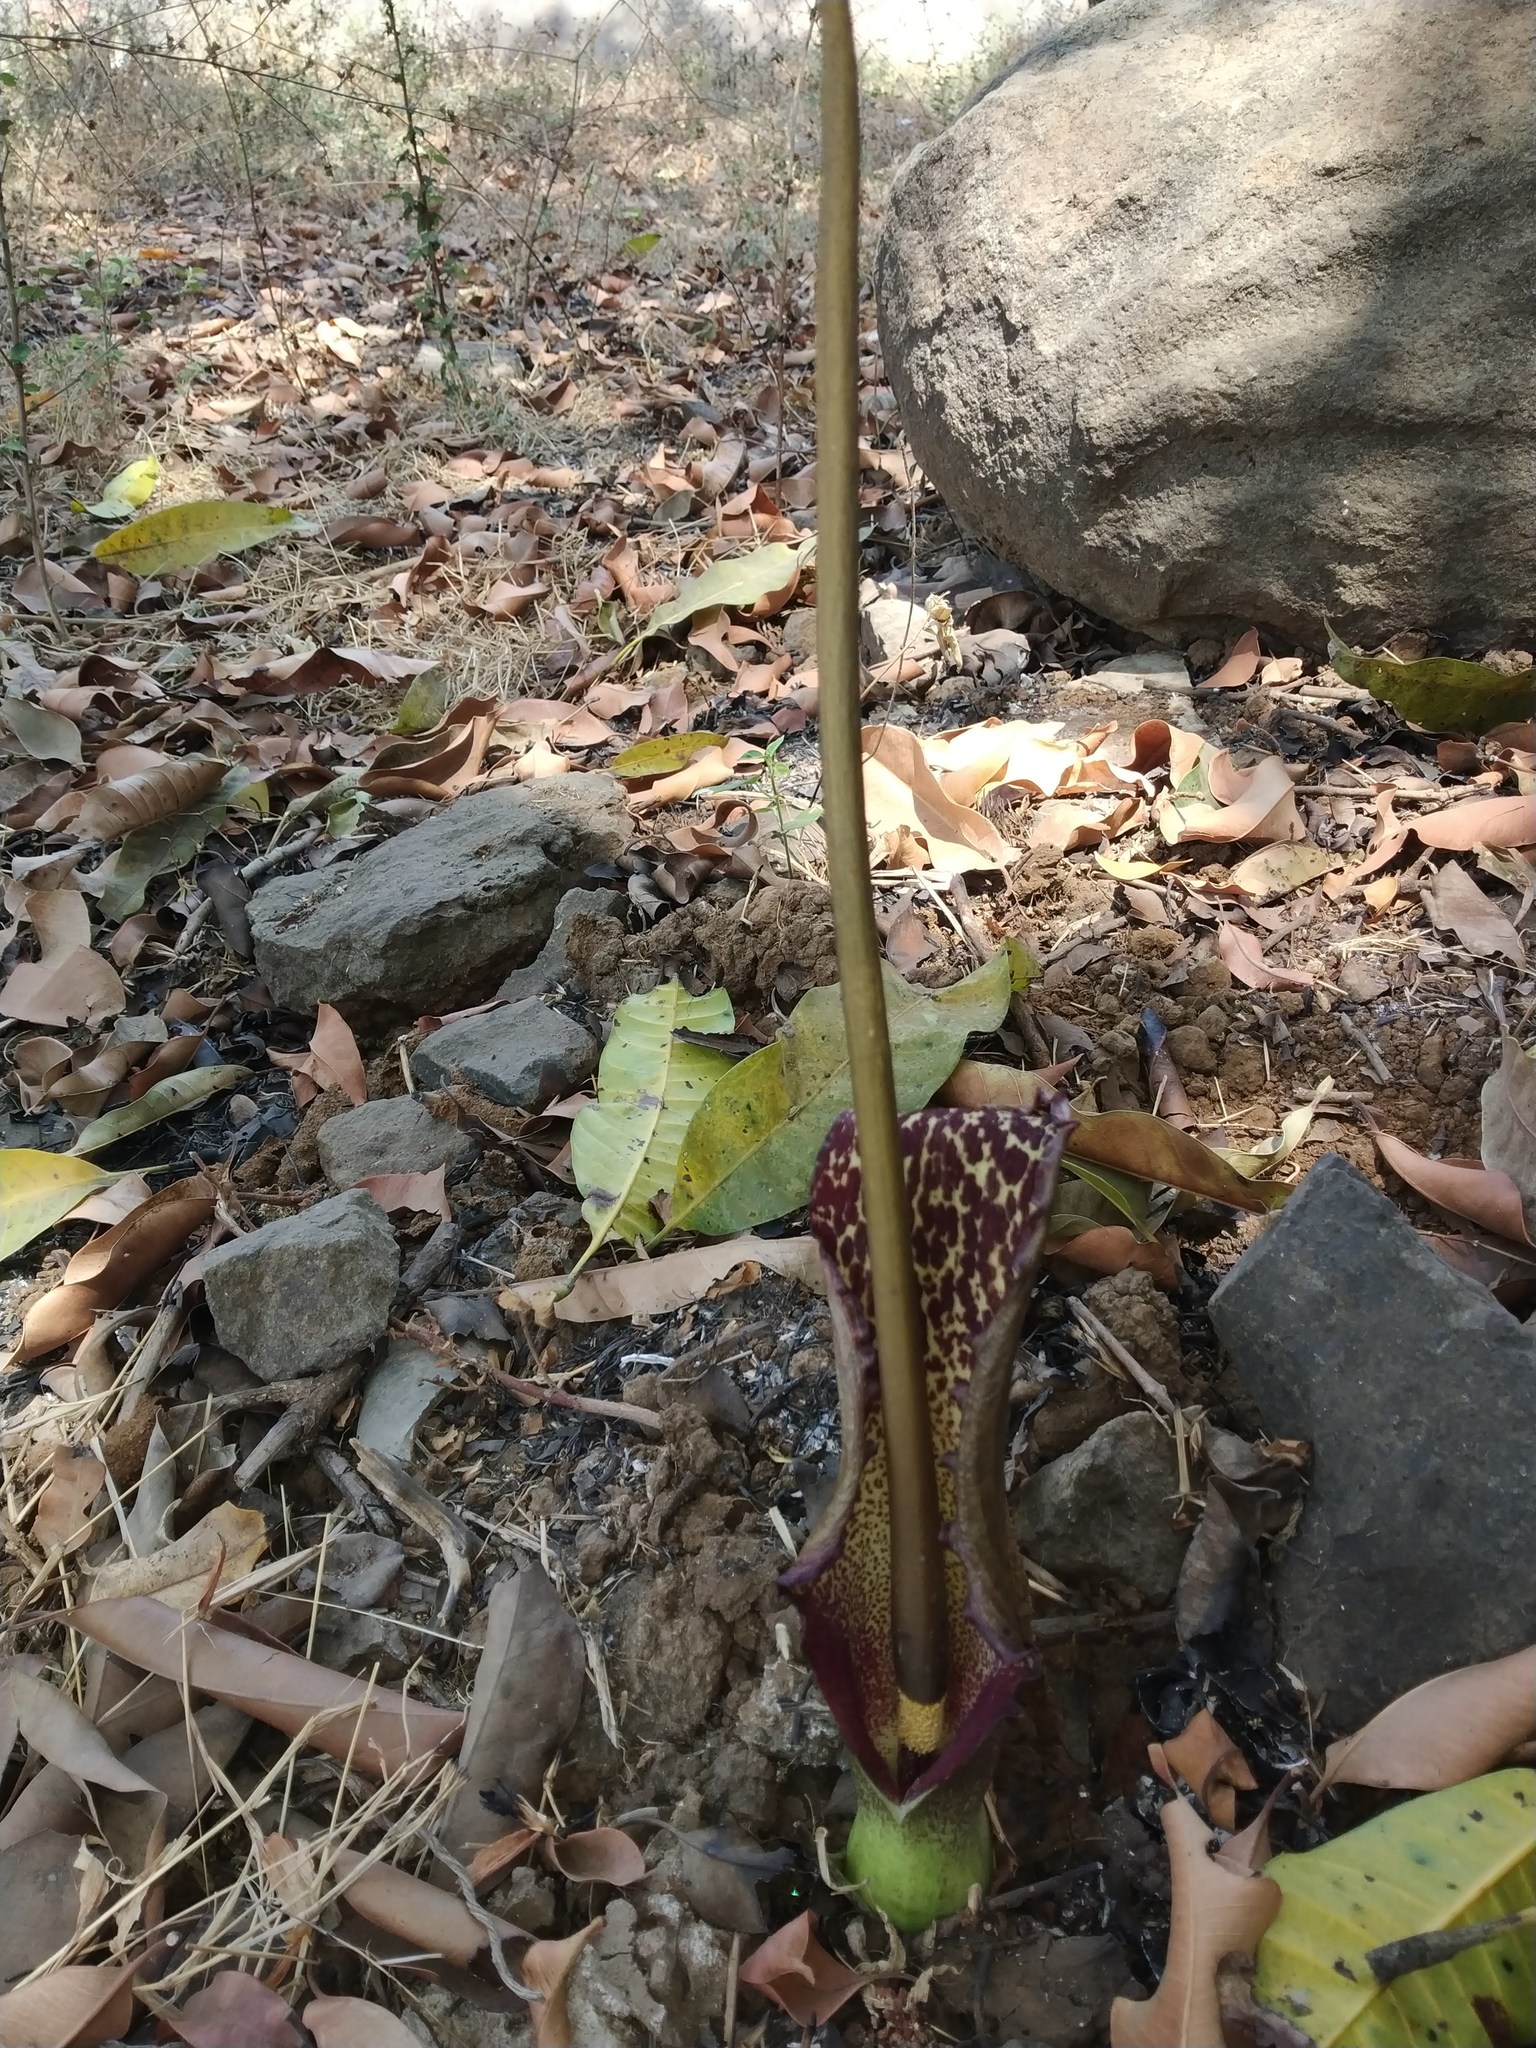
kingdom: Plantae
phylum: Tracheophyta
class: Liliopsida
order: Alismatales
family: Araceae
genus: Sauromatum
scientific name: Sauromatum venosum
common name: Voodoo lily
